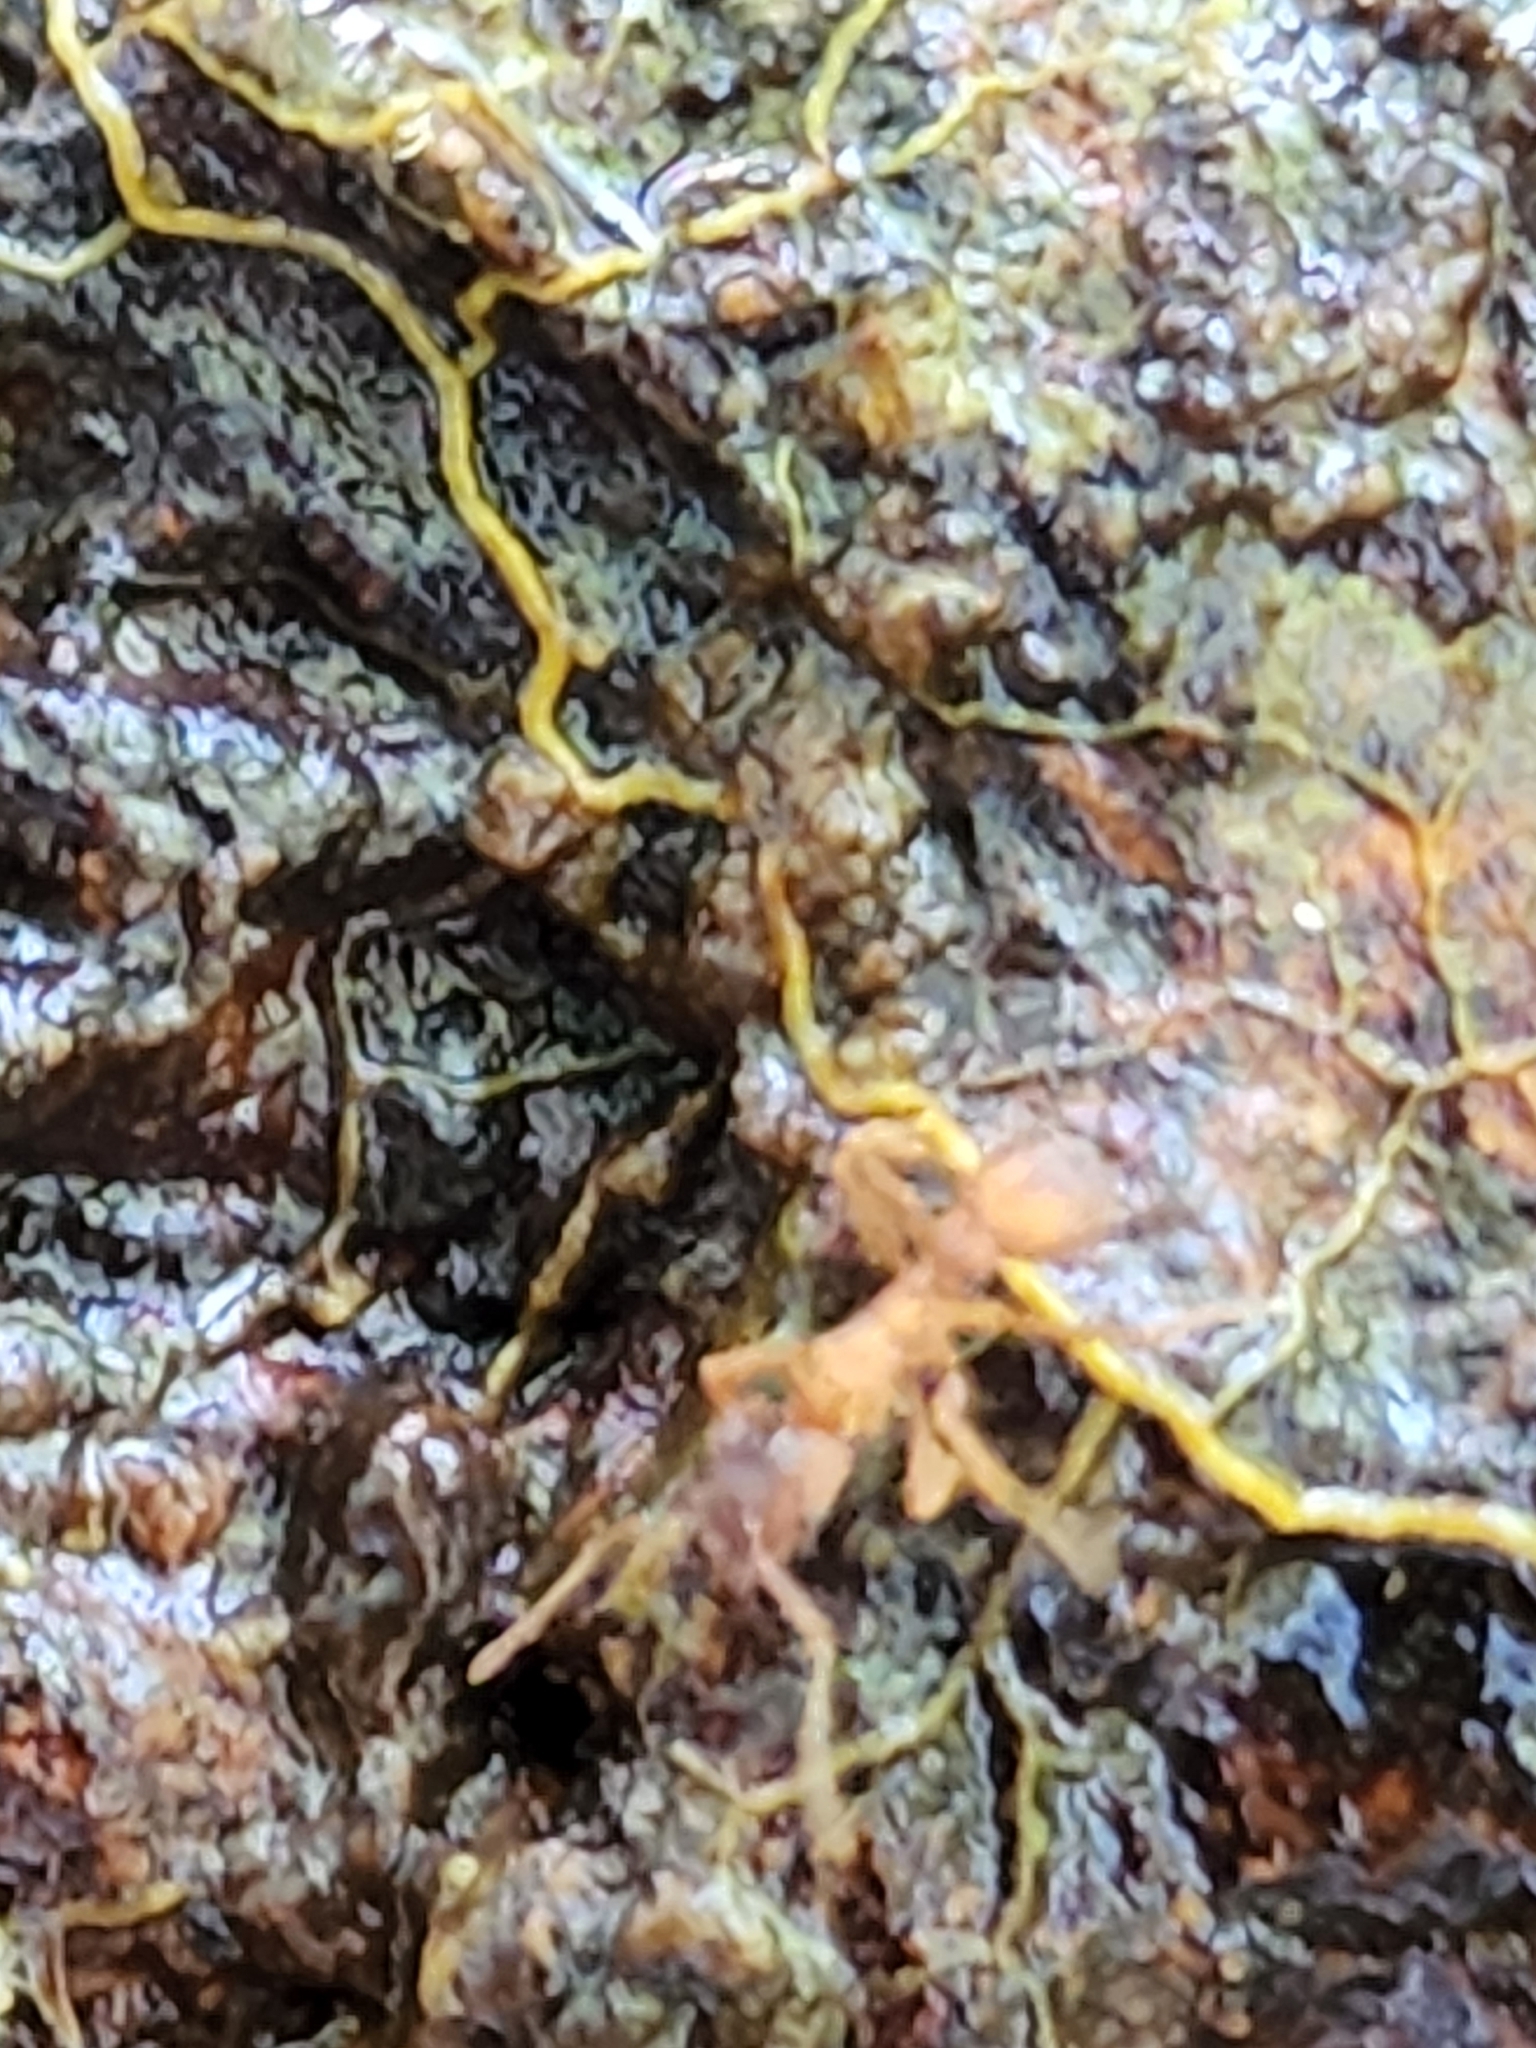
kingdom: Animalia
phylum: Arthropoda
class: Insecta
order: Hymenoptera
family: Formicidae
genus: Trachymyrmex
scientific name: Trachymyrmex septentrionalis
